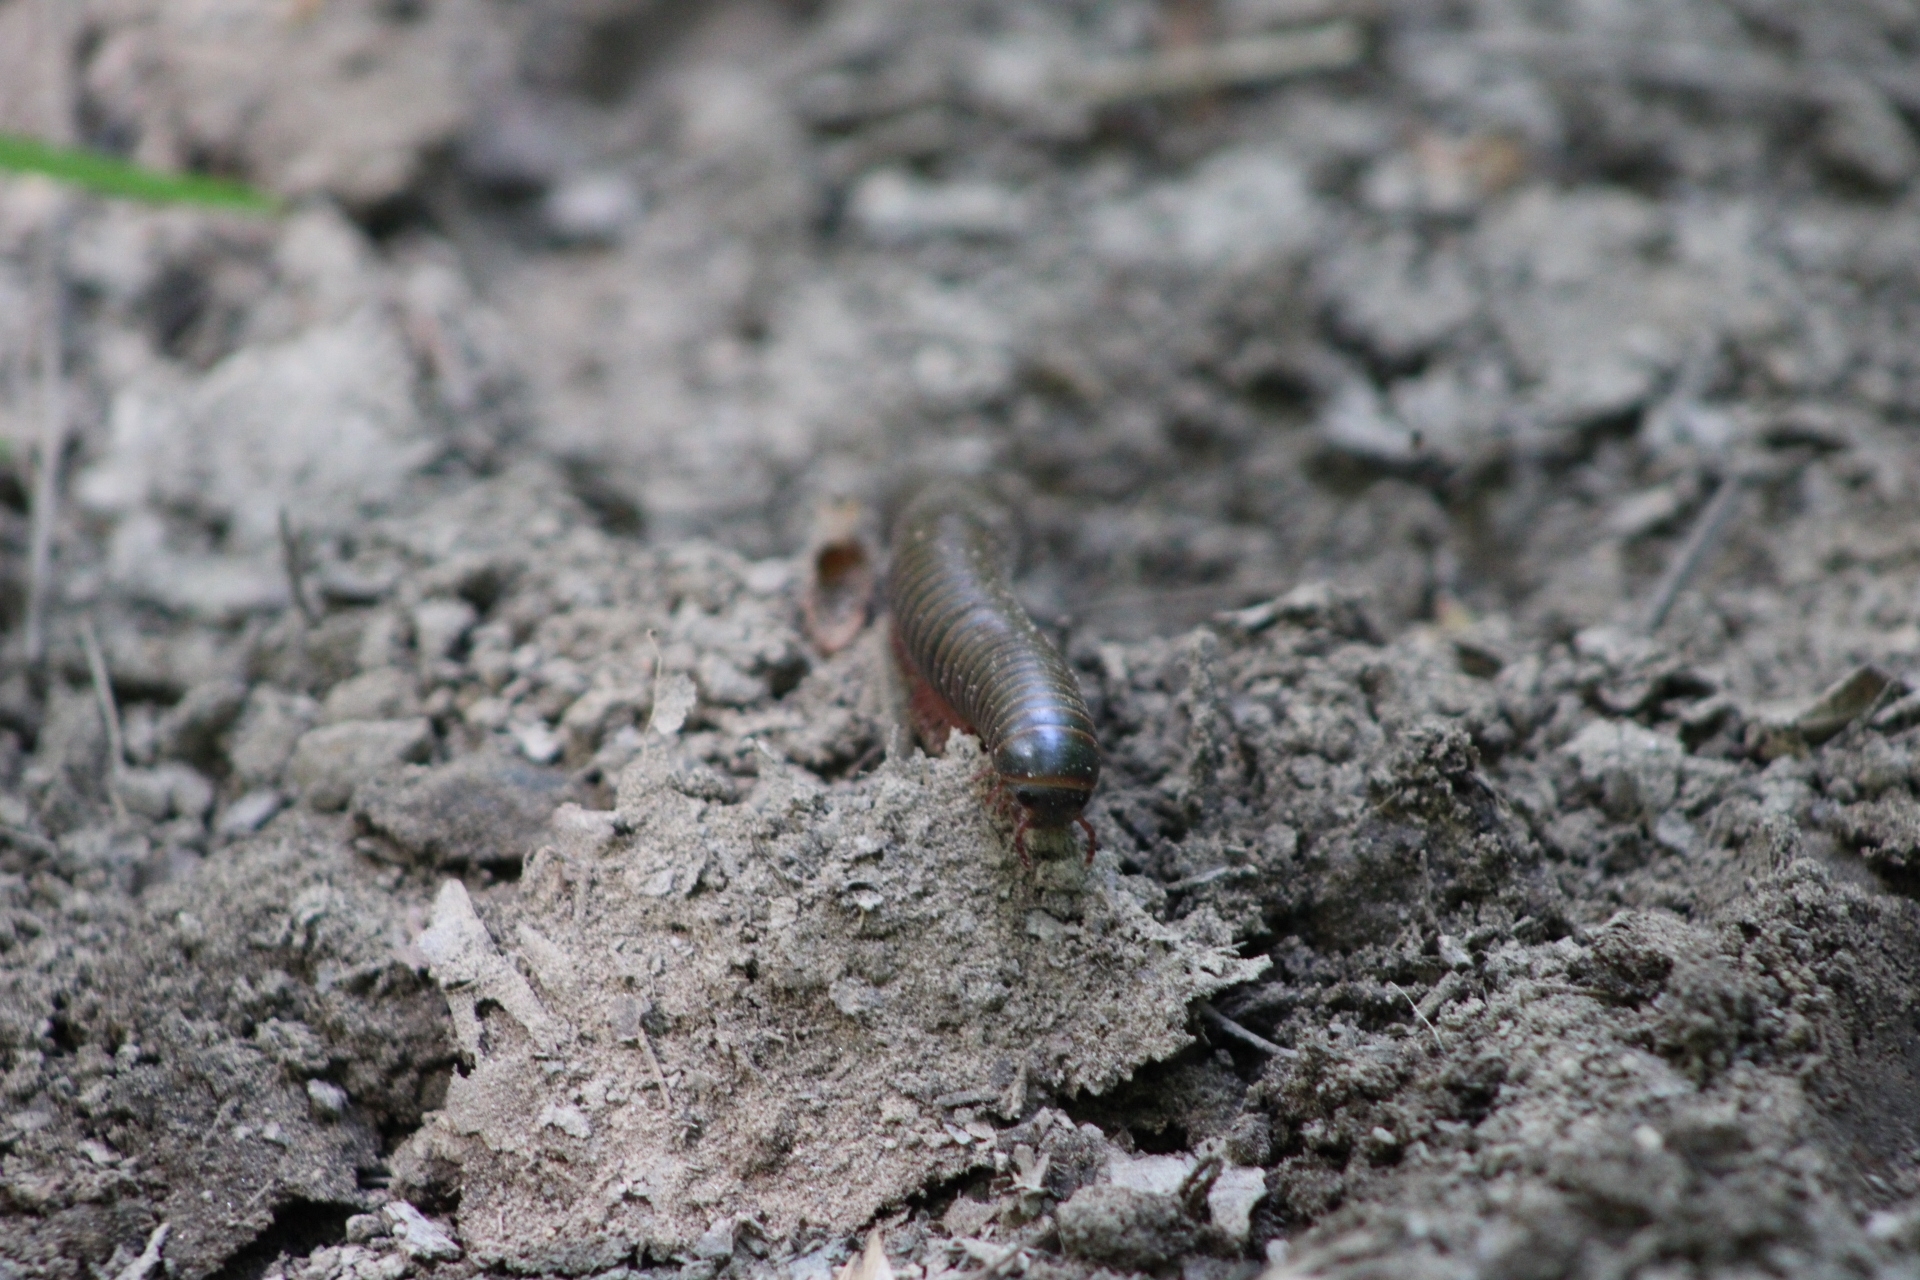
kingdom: Animalia
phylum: Arthropoda
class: Diplopoda
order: Spirobolida
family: Spirobolidae
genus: Narceus
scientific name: Narceus
